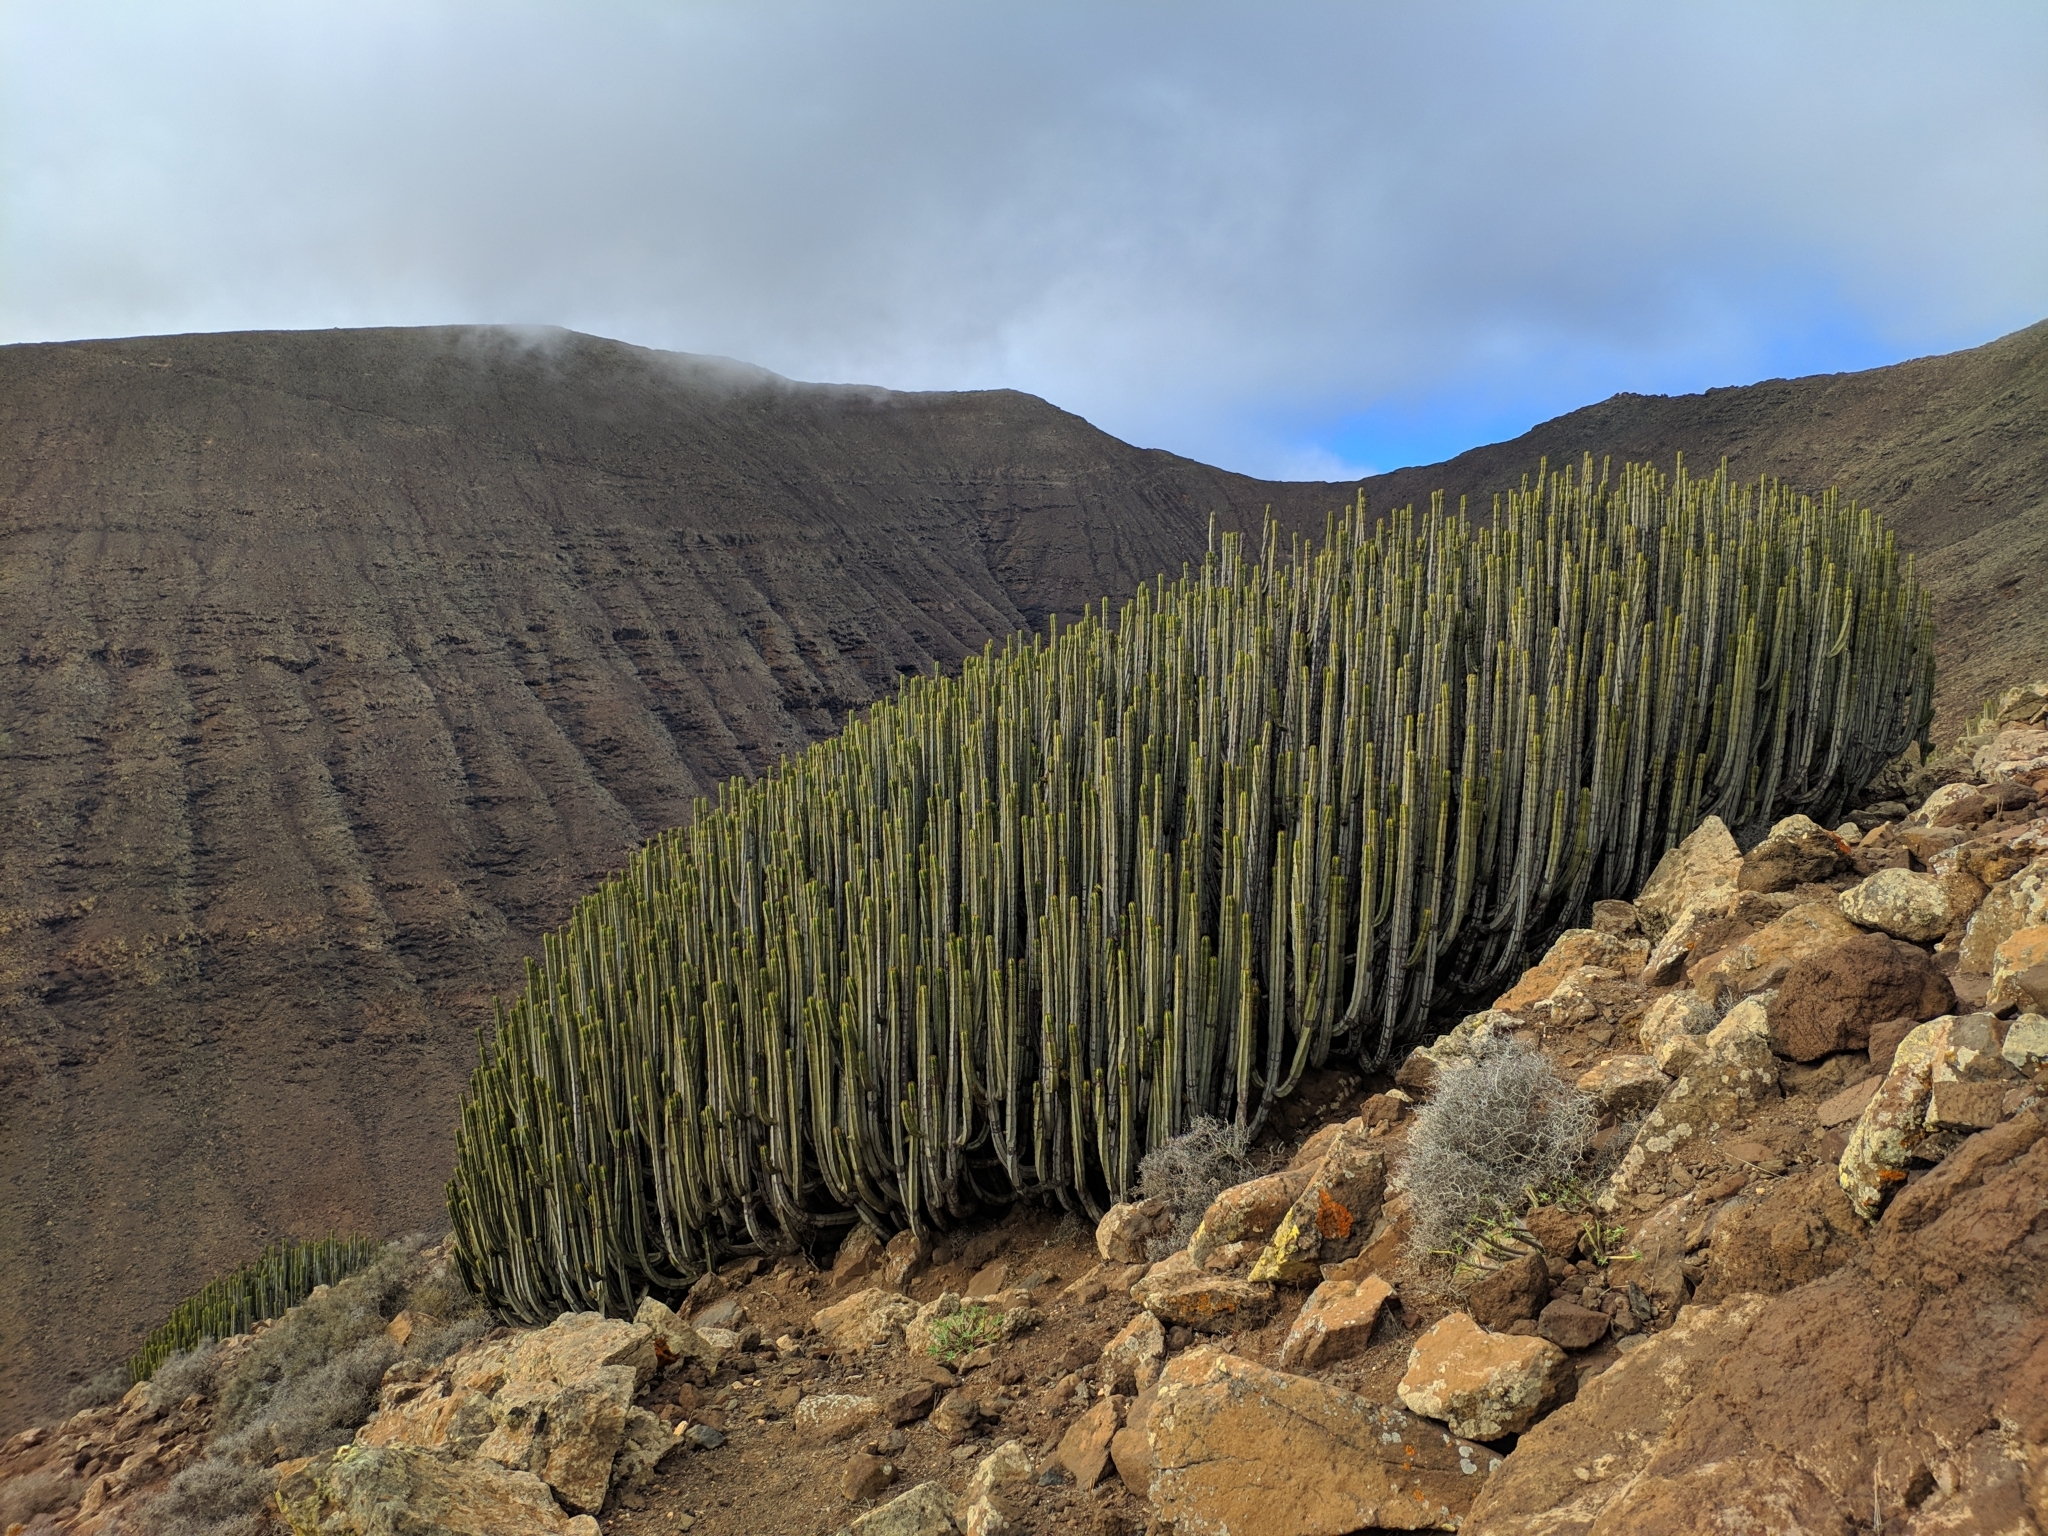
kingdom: Plantae
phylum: Tracheophyta
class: Magnoliopsida
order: Malpighiales
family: Euphorbiaceae
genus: Euphorbia
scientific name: Euphorbia canariensis
